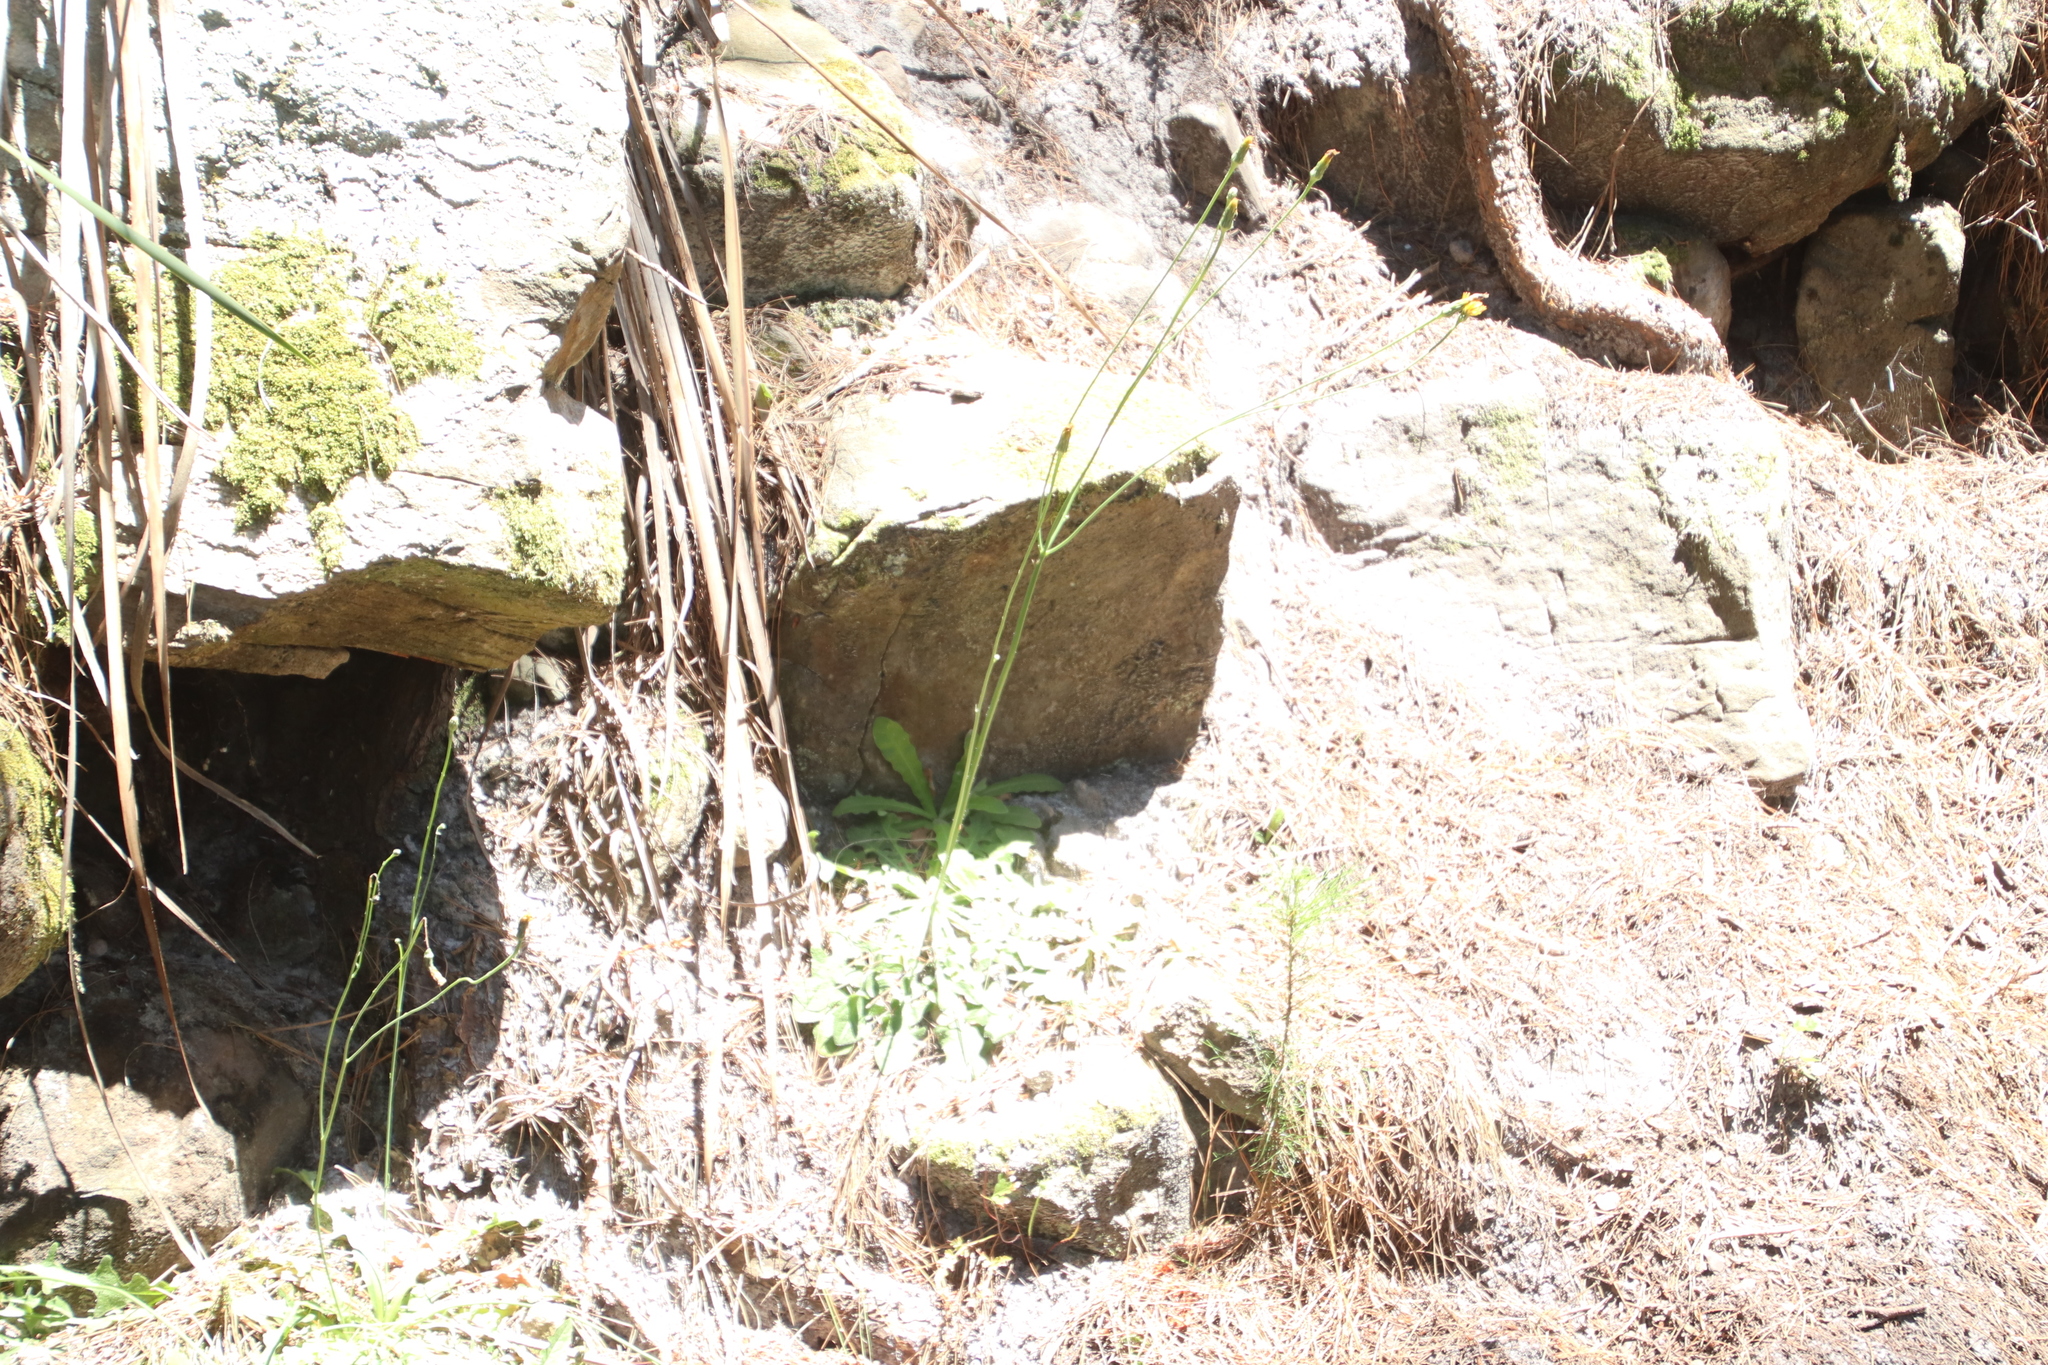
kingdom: Plantae
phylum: Tracheophyta
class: Magnoliopsida
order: Asterales
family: Asteraceae
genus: Hypochaeris
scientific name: Hypochaeris radicata
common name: Flatweed
